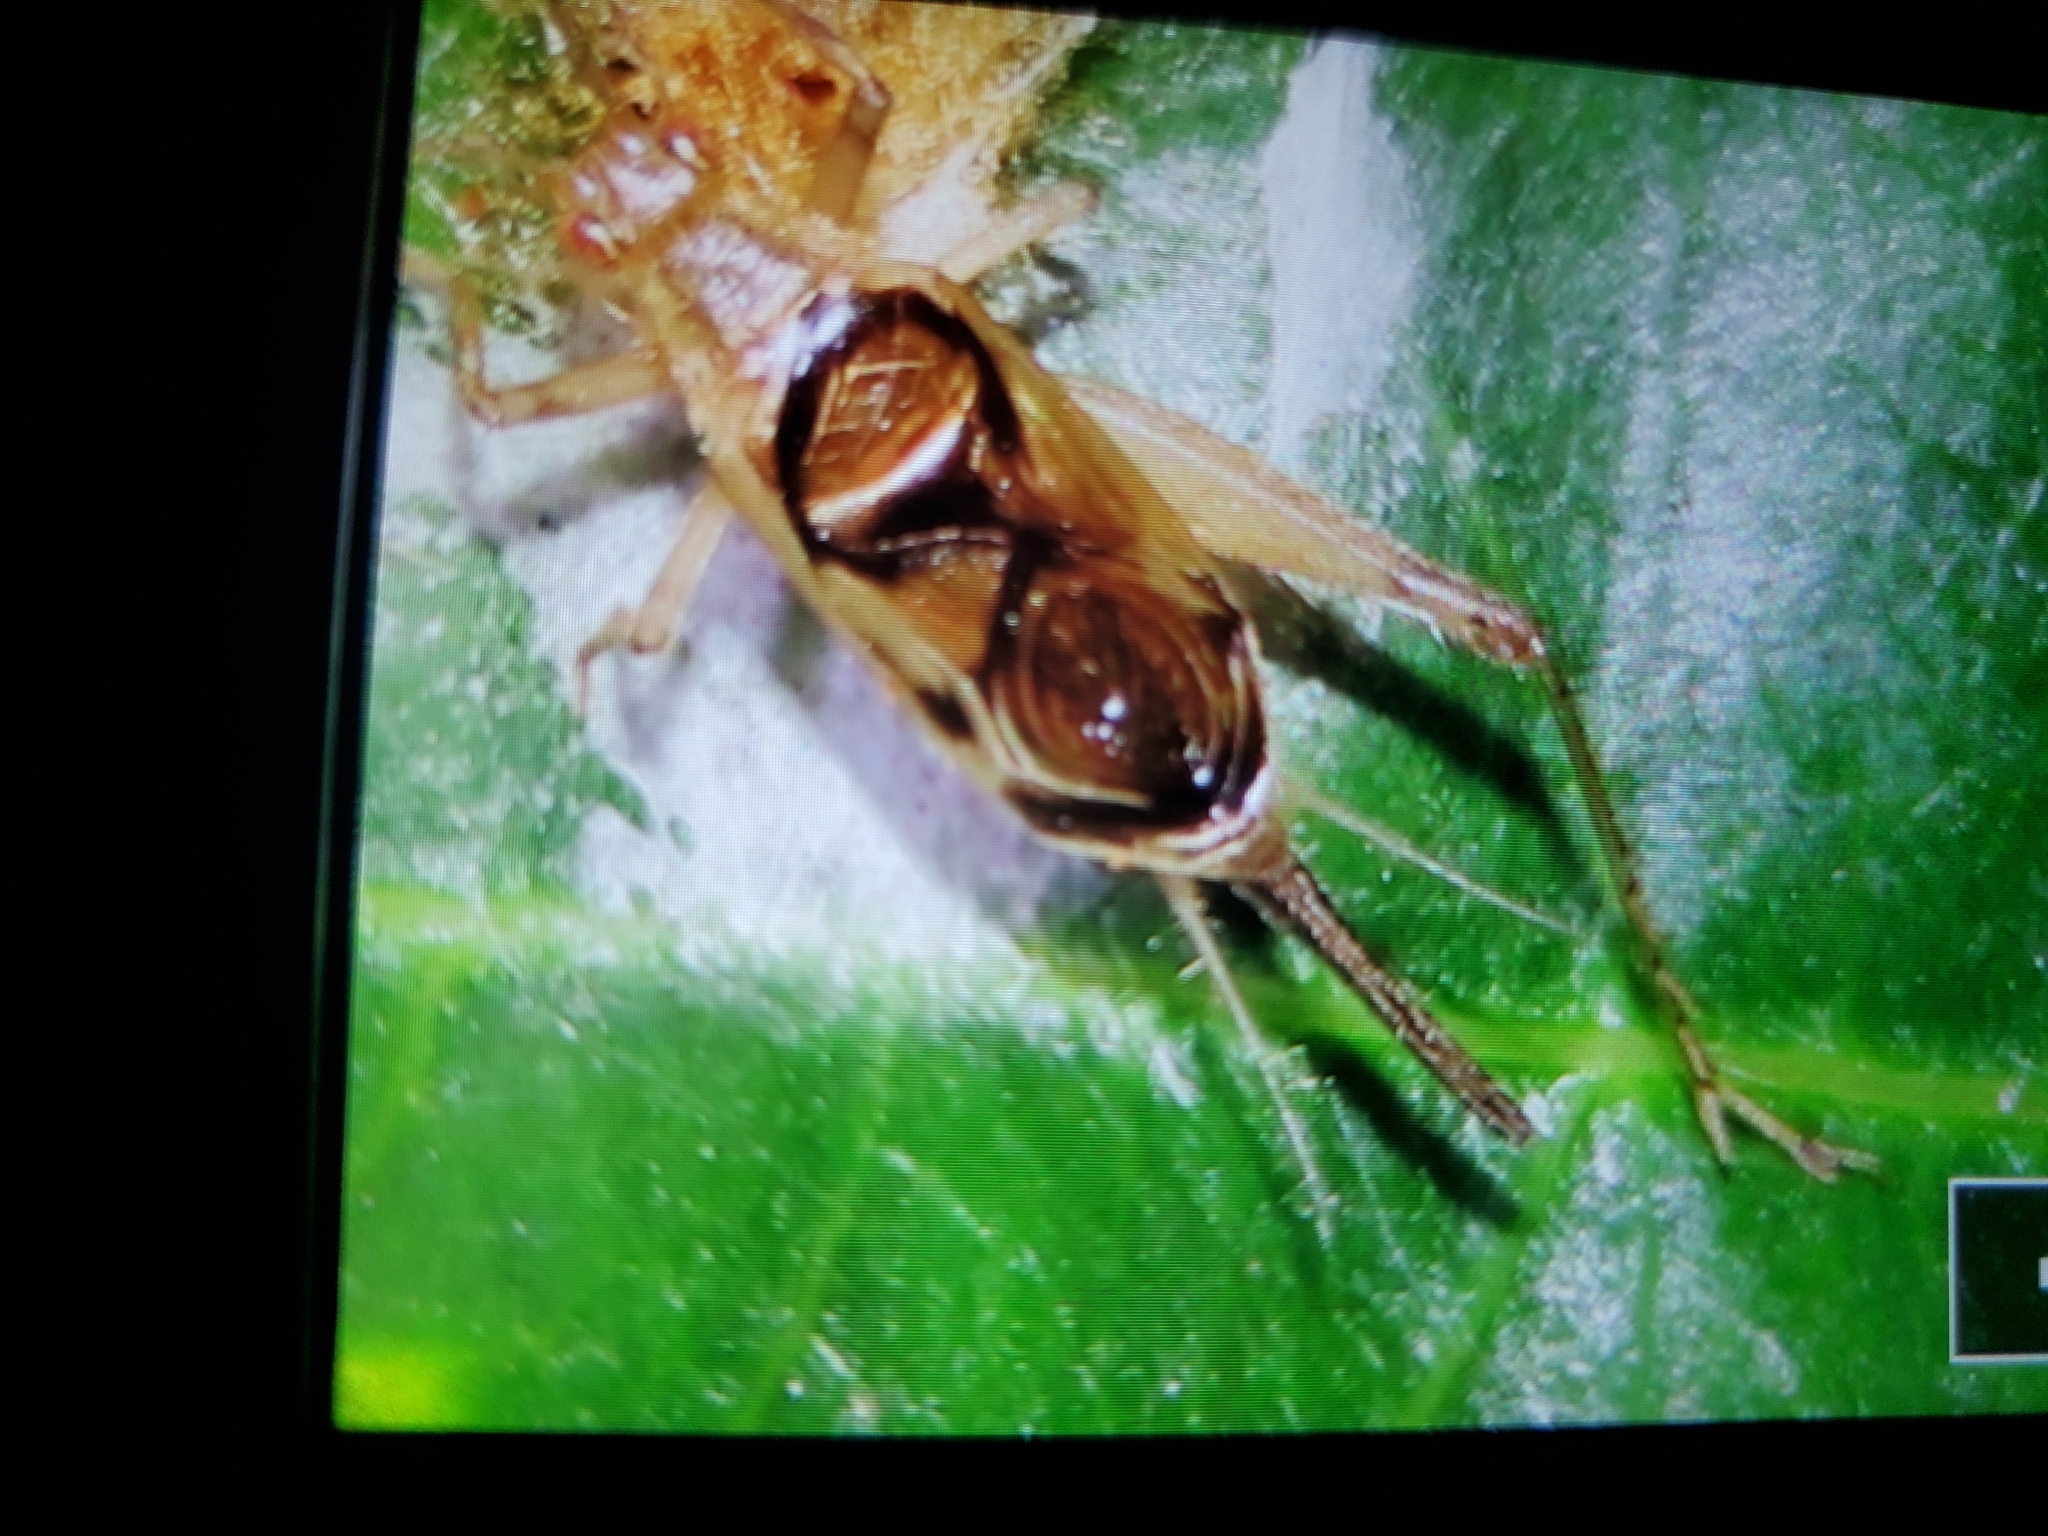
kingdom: Animalia
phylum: Arthropoda
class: Insecta
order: Orthoptera
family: Trigonidiidae
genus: Anaxipha
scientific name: Anaxipha calusa
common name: Calusa trig
